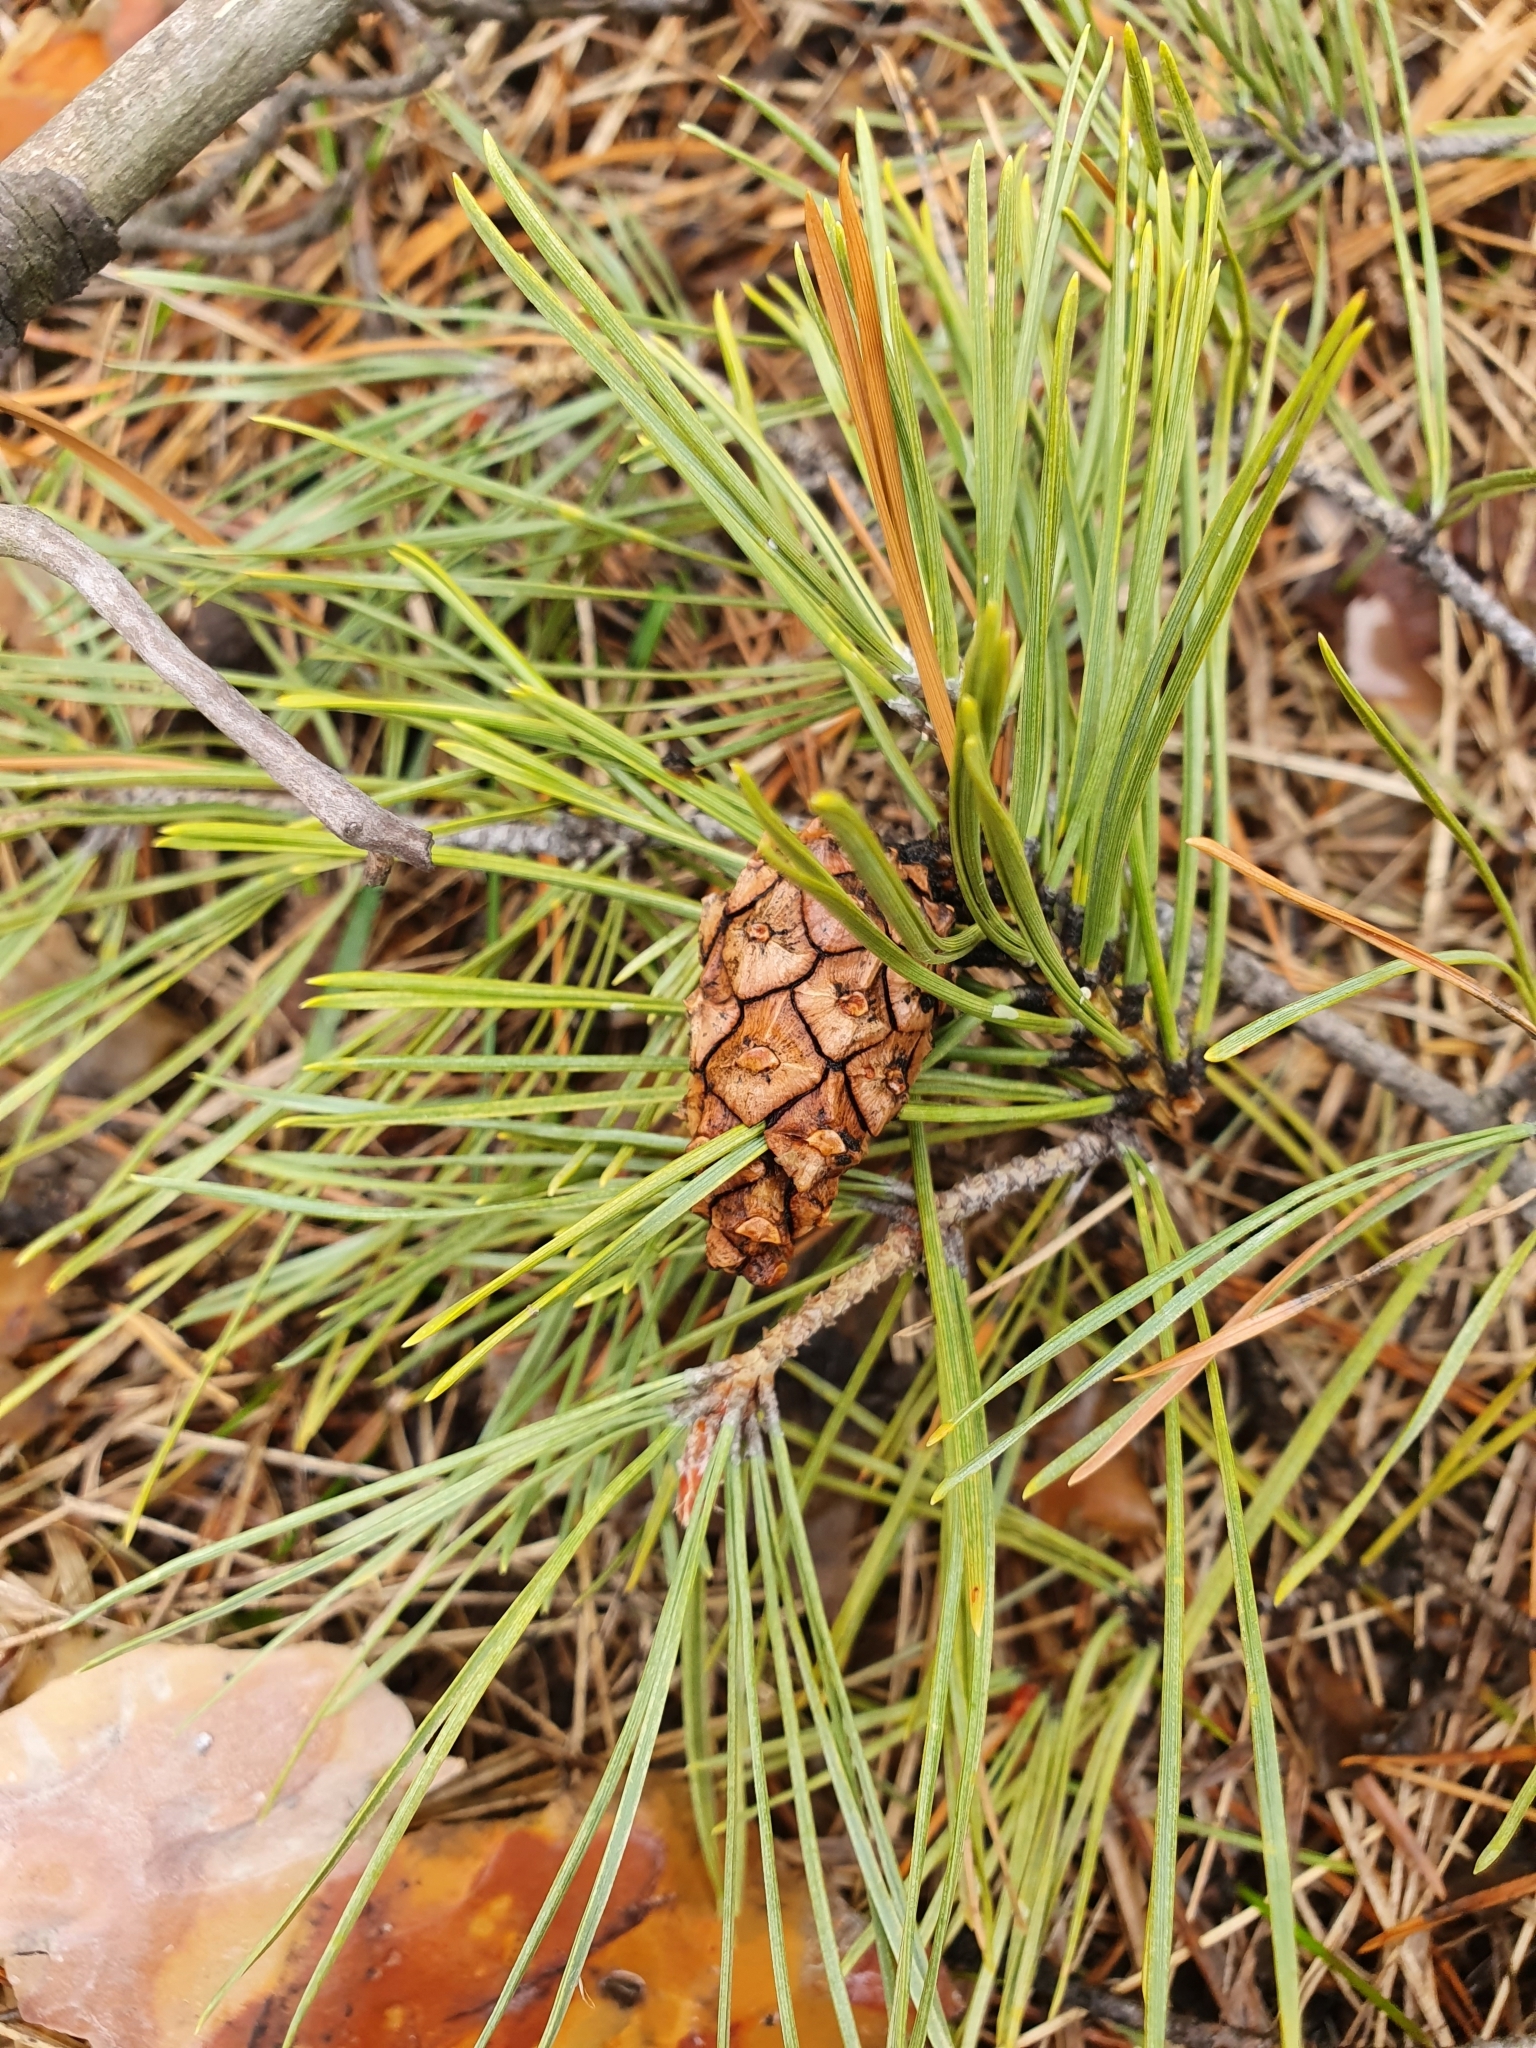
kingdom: Plantae
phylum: Tracheophyta
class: Pinopsida
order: Pinales
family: Pinaceae
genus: Pinus
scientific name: Pinus sylvestris
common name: Scots pine
